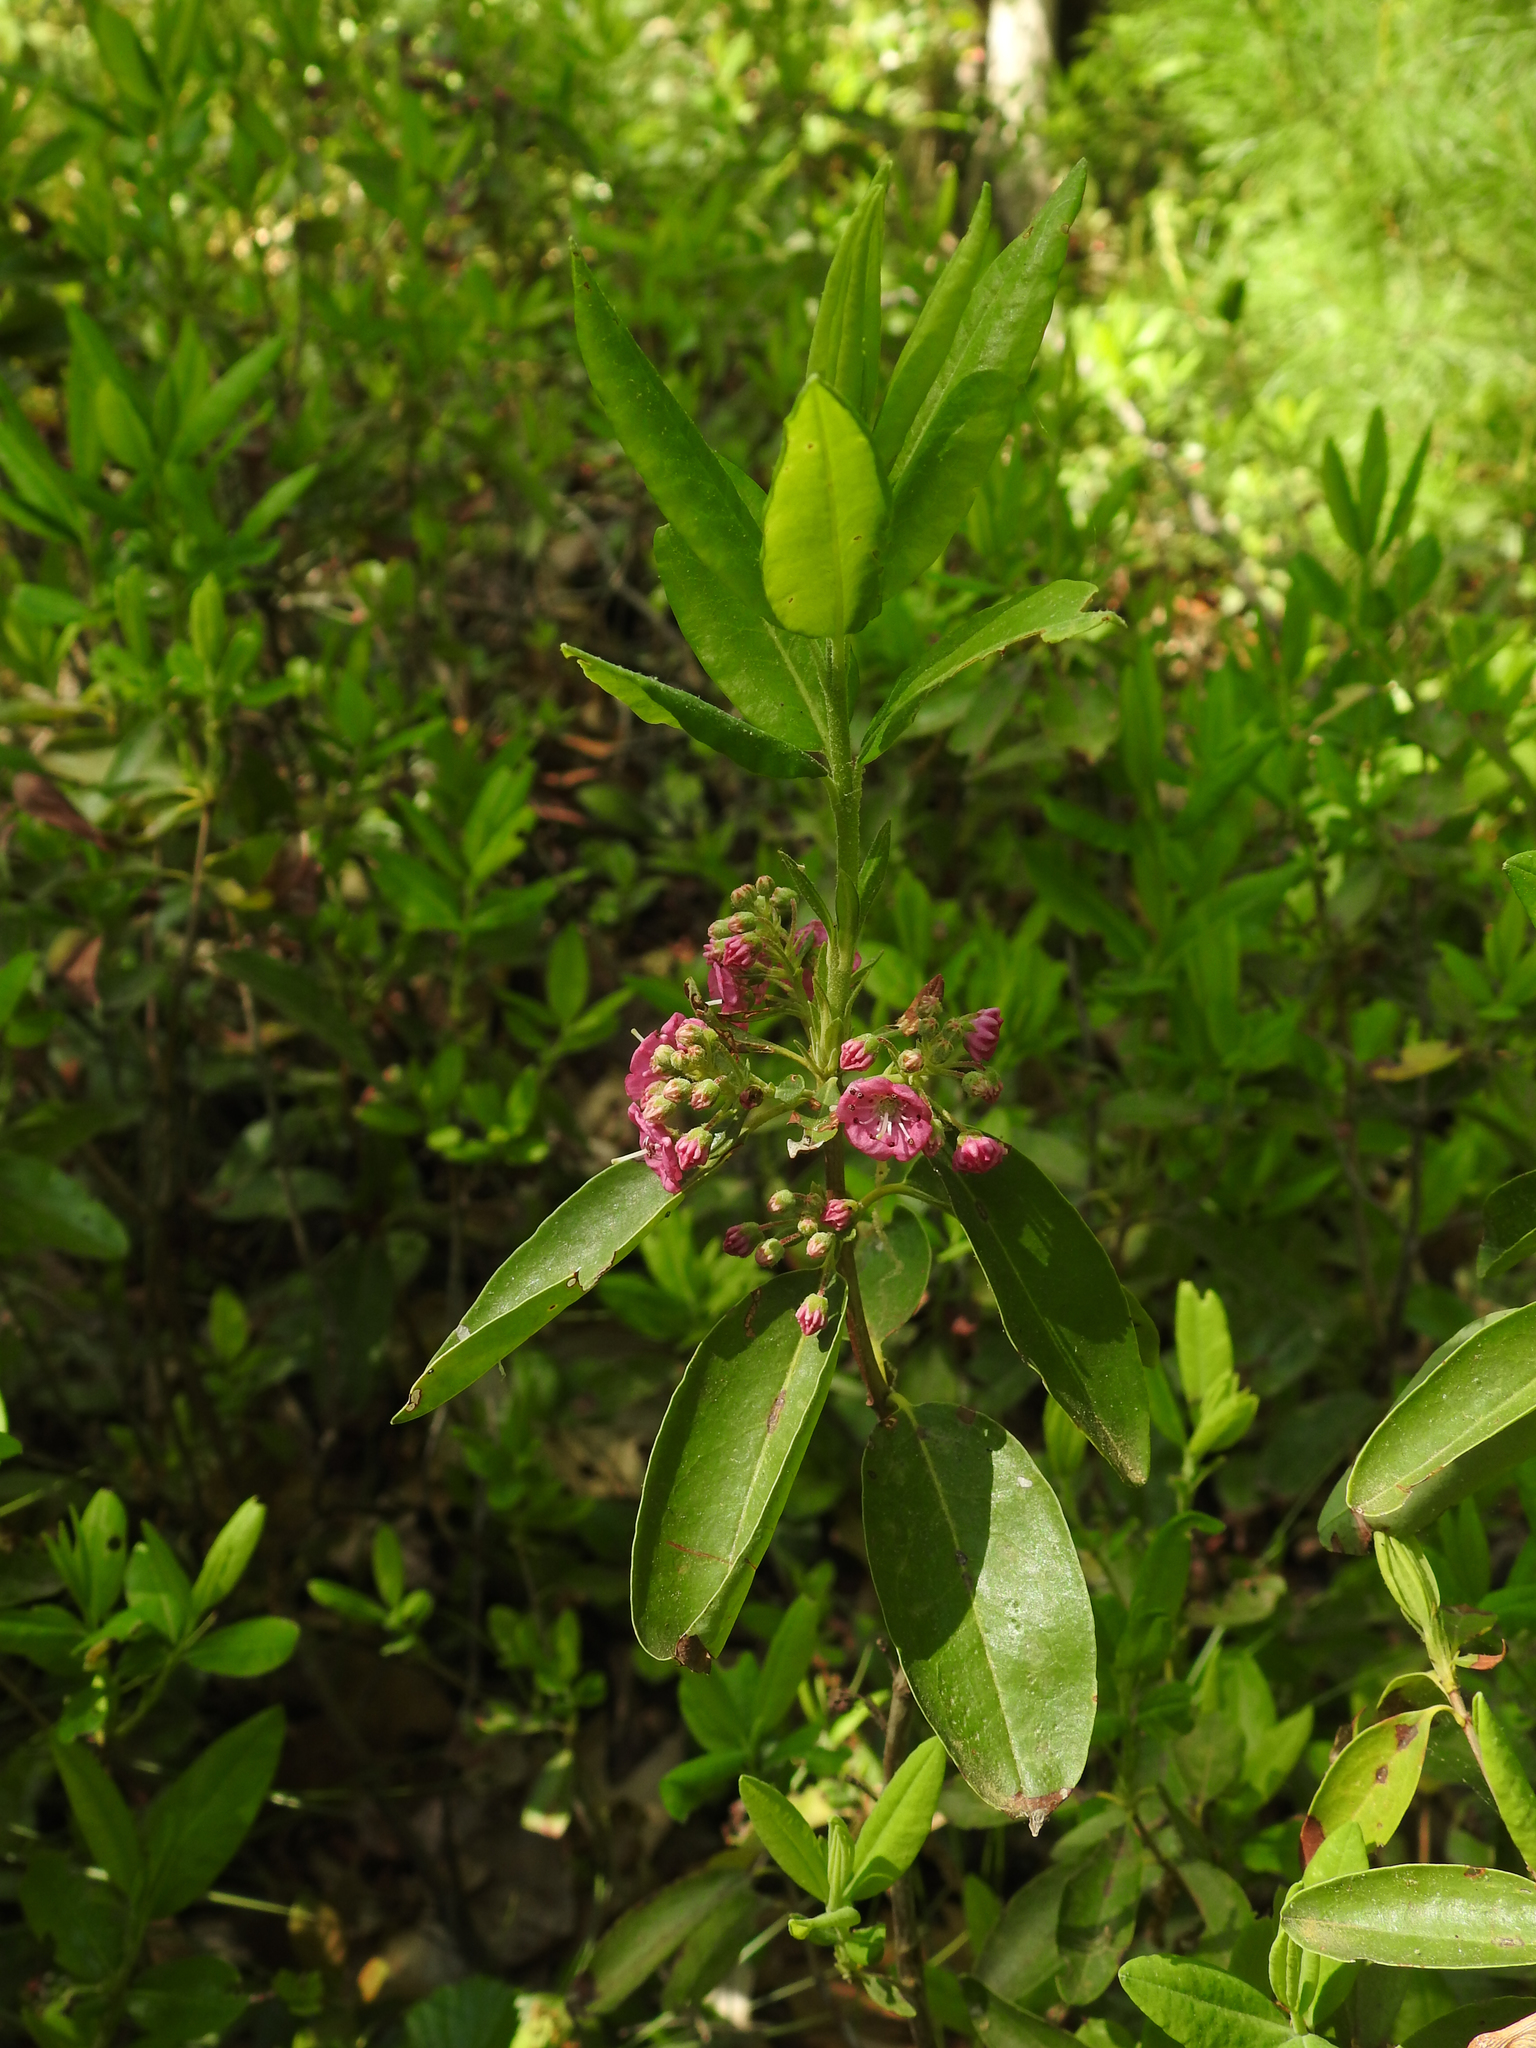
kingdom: Plantae
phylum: Tracheophyta
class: Magnoliopsida
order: Ericales
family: Ericaceae
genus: Kalmia
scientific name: Kalmia angustifolia
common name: Sheep-laurel
